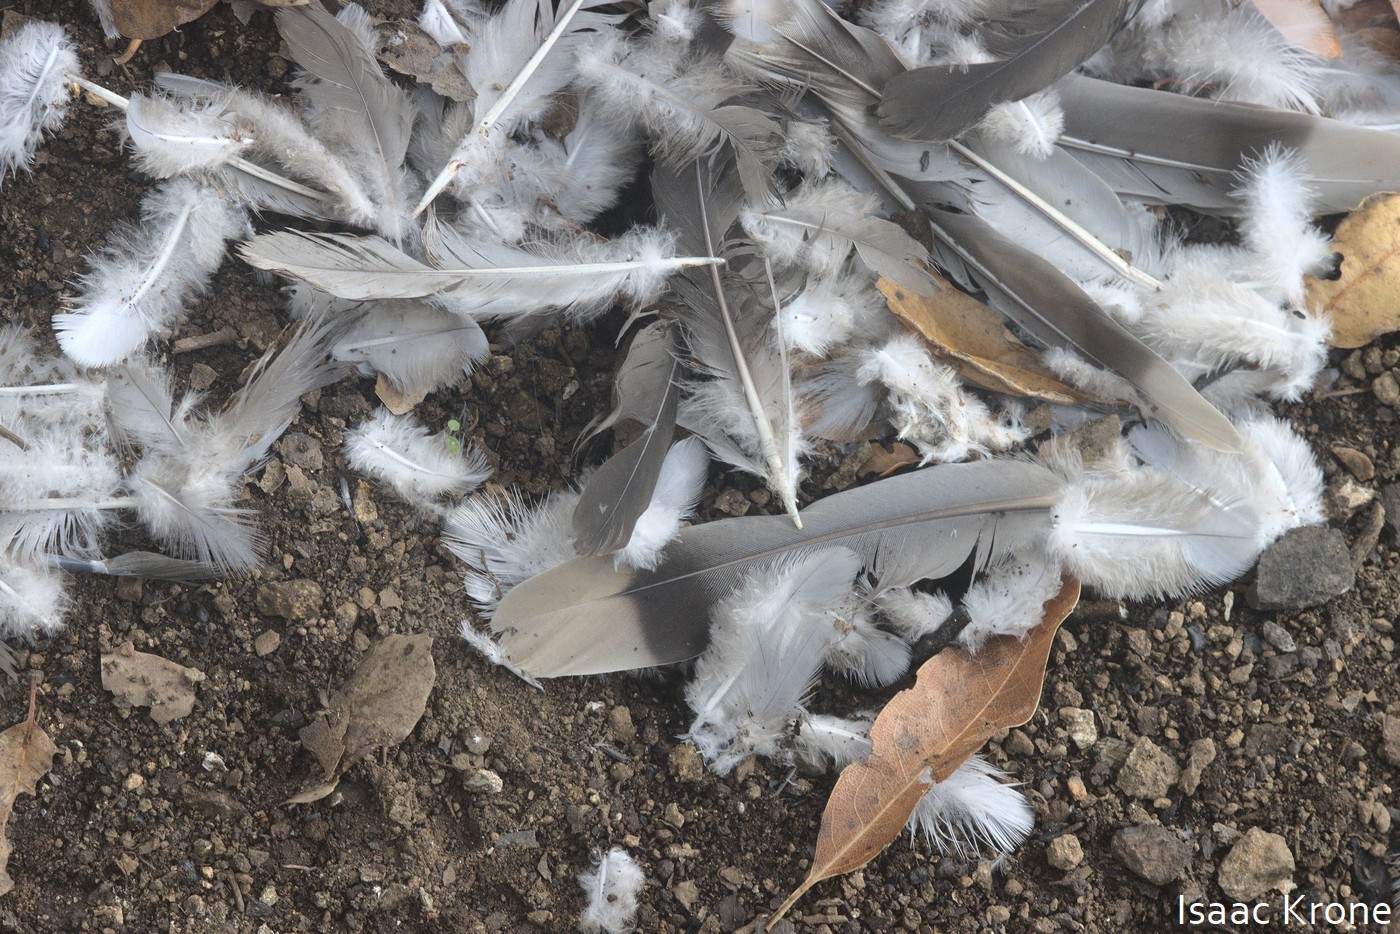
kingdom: Animalia
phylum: Chordata
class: Aves
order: Columbiformes
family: Columbidae
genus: Patagioenas
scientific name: Patagioenas fasciata
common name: Band-tailed pigeon
